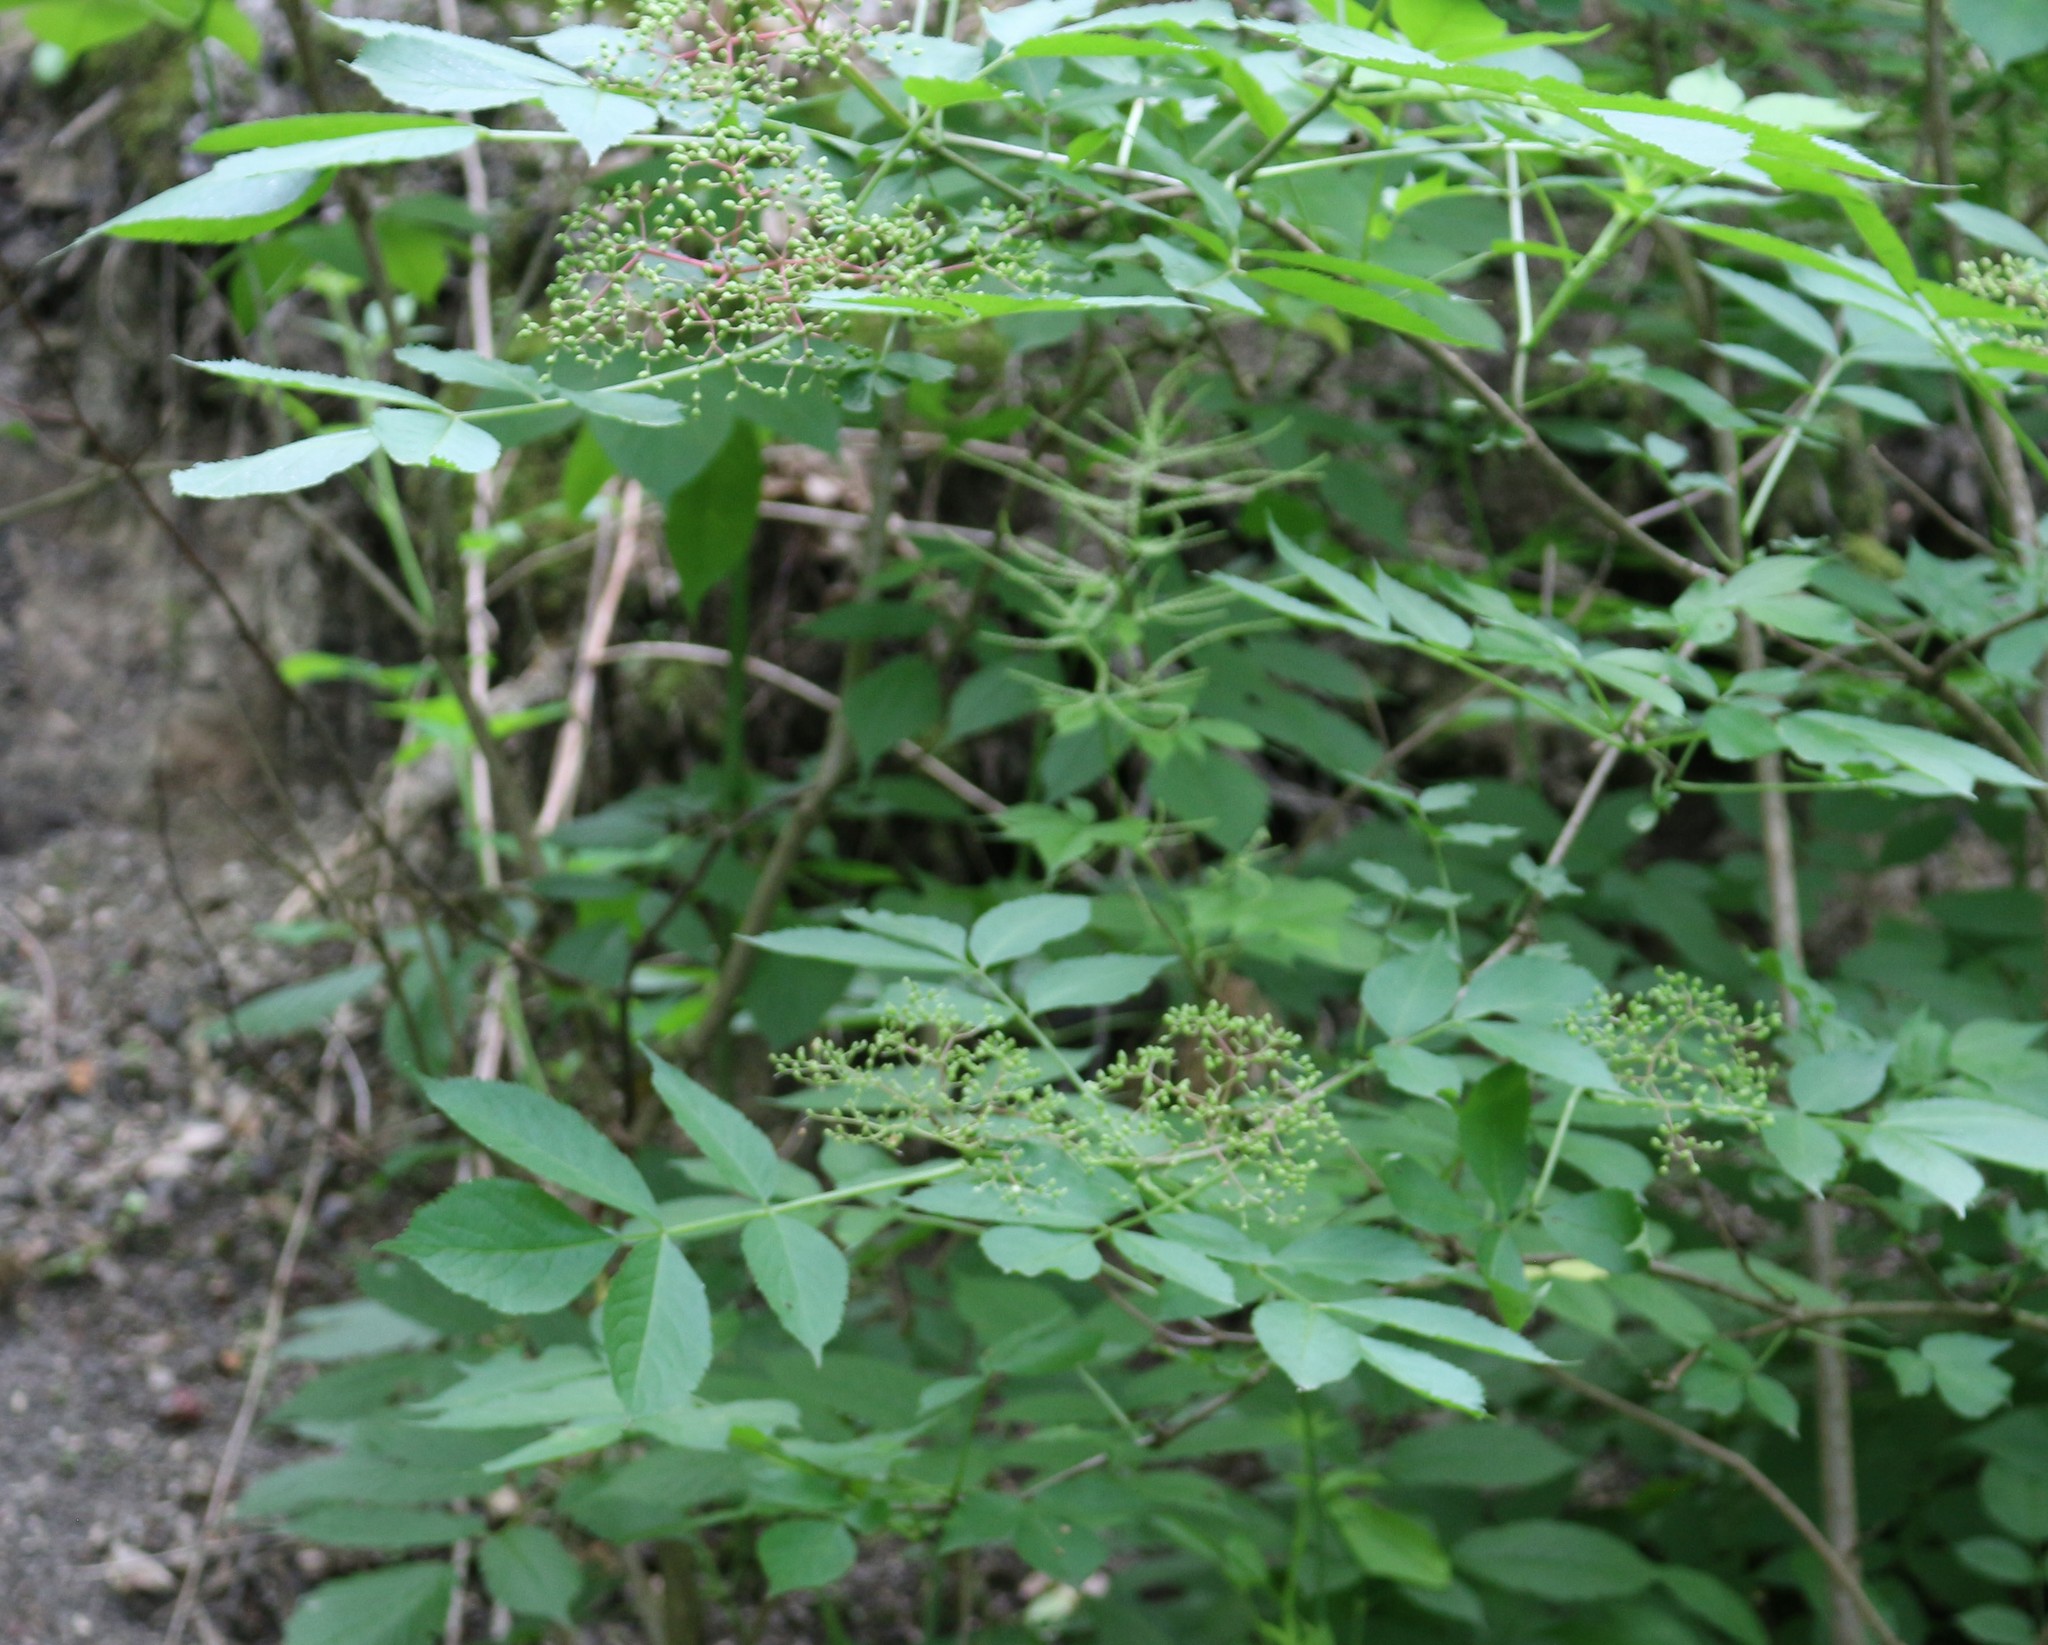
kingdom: Plantae
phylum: Tracheophyta
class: Magnoliopsida
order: Dipsacales
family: Viburnaceae
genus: Sambucus
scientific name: Sambucus nigra
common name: Elder
